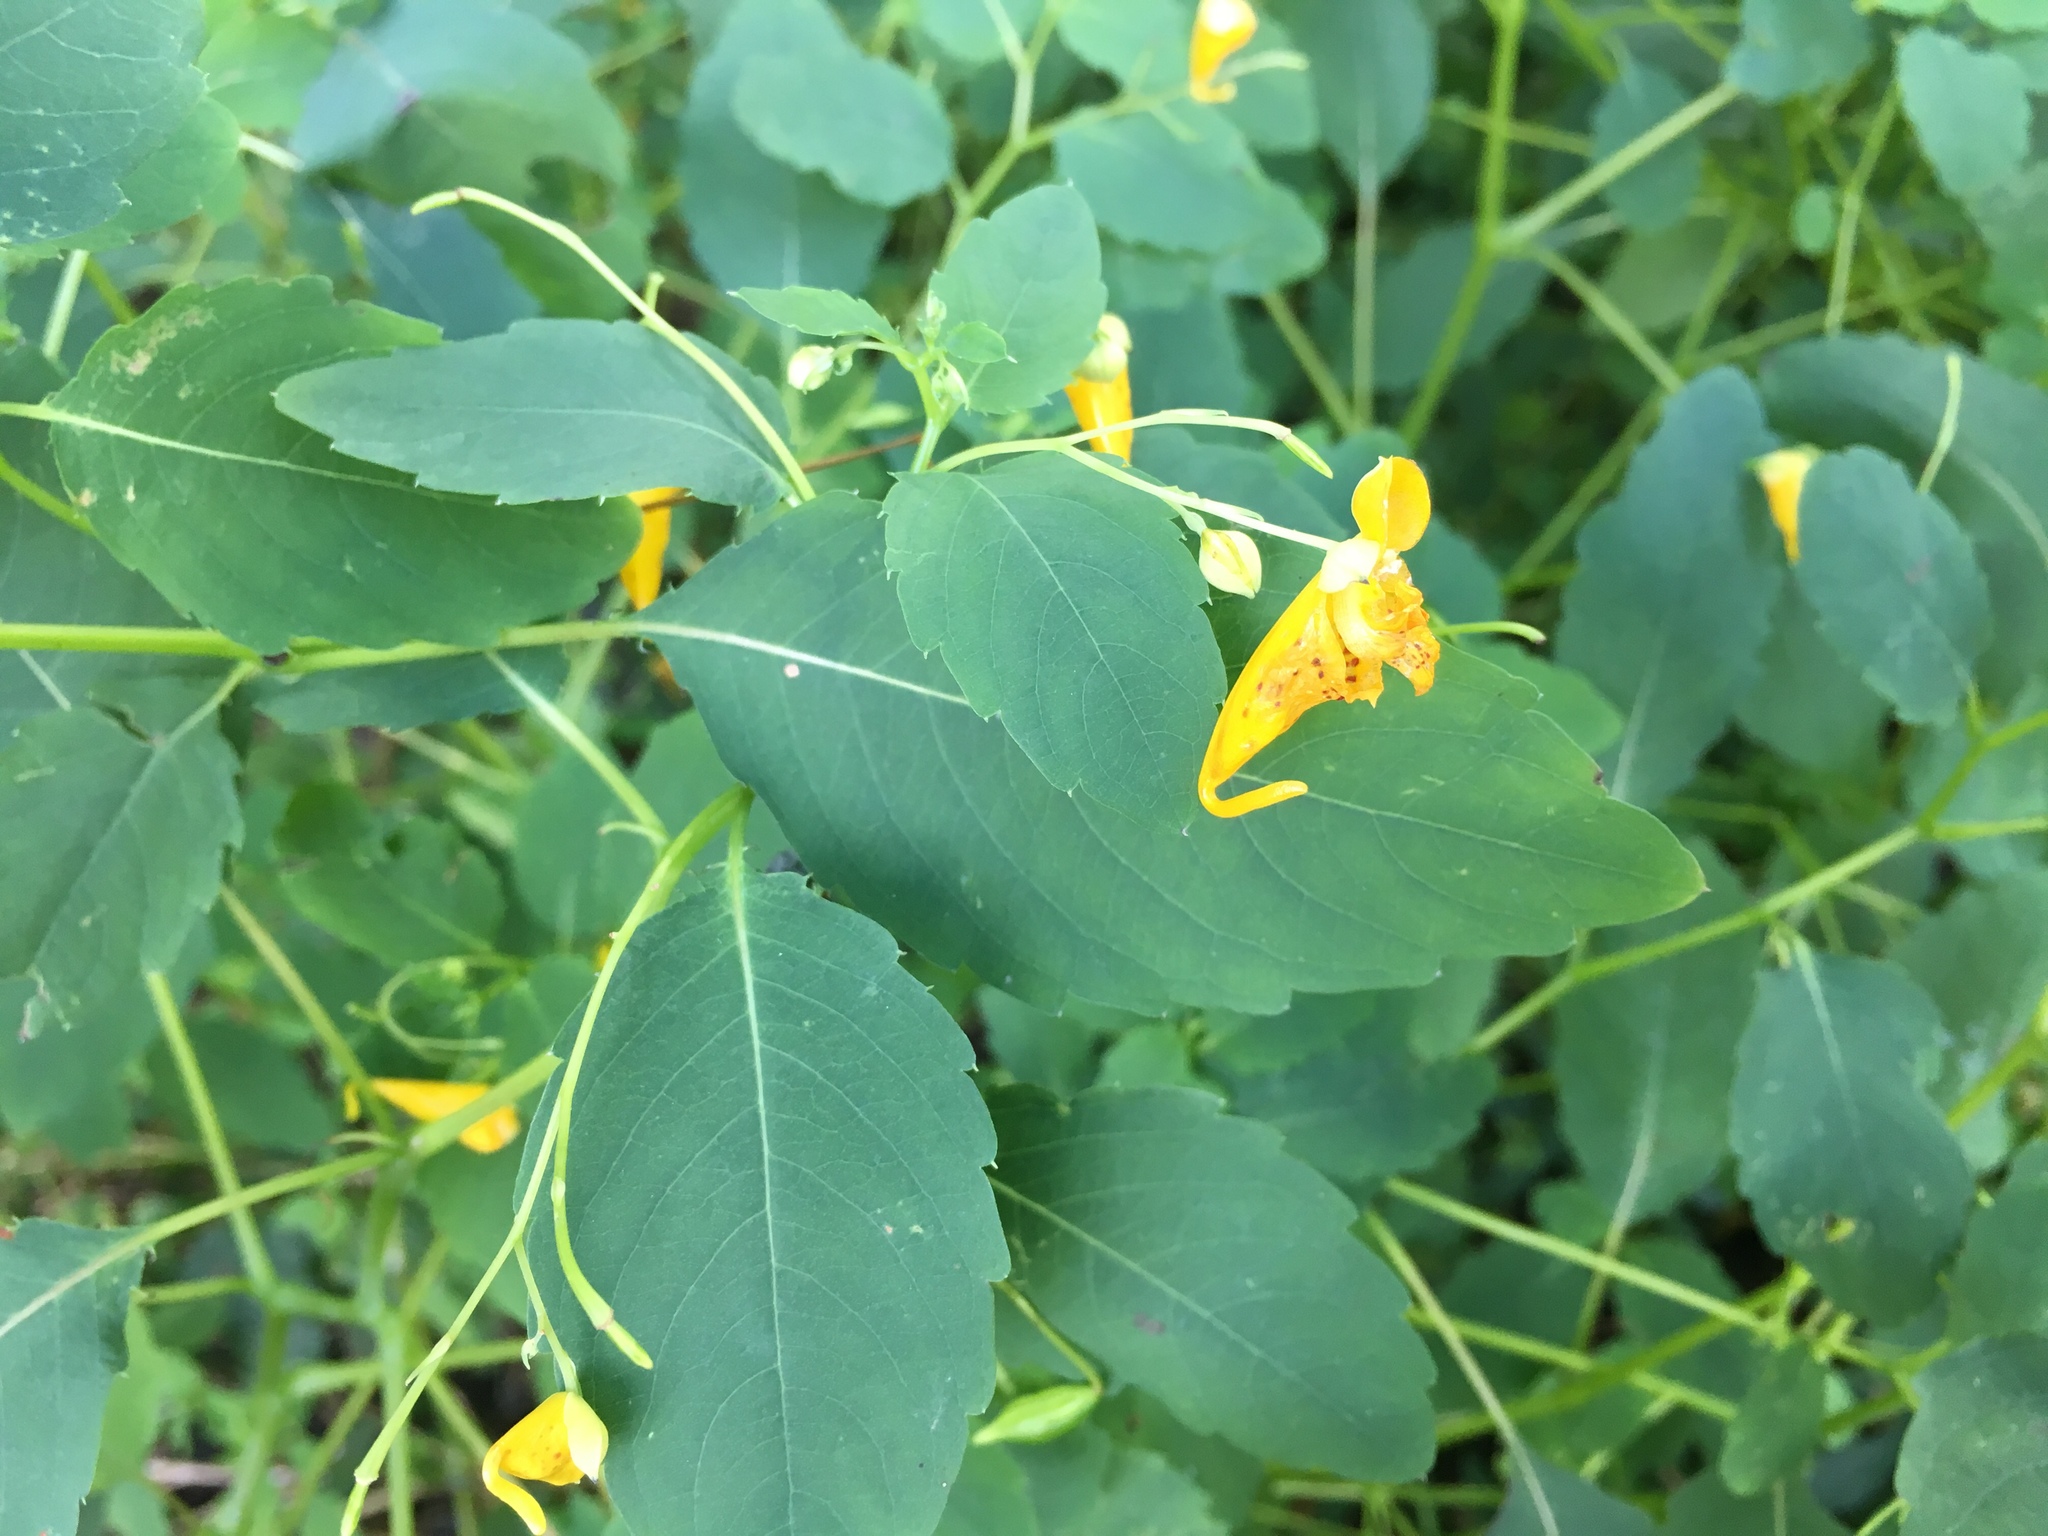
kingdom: Plantae
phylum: Tracheophyta
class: Magnoliopsida
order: Ericales
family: Balsaminaceae
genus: Impatiens
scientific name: Impatiens capensis
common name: Orange balsam
